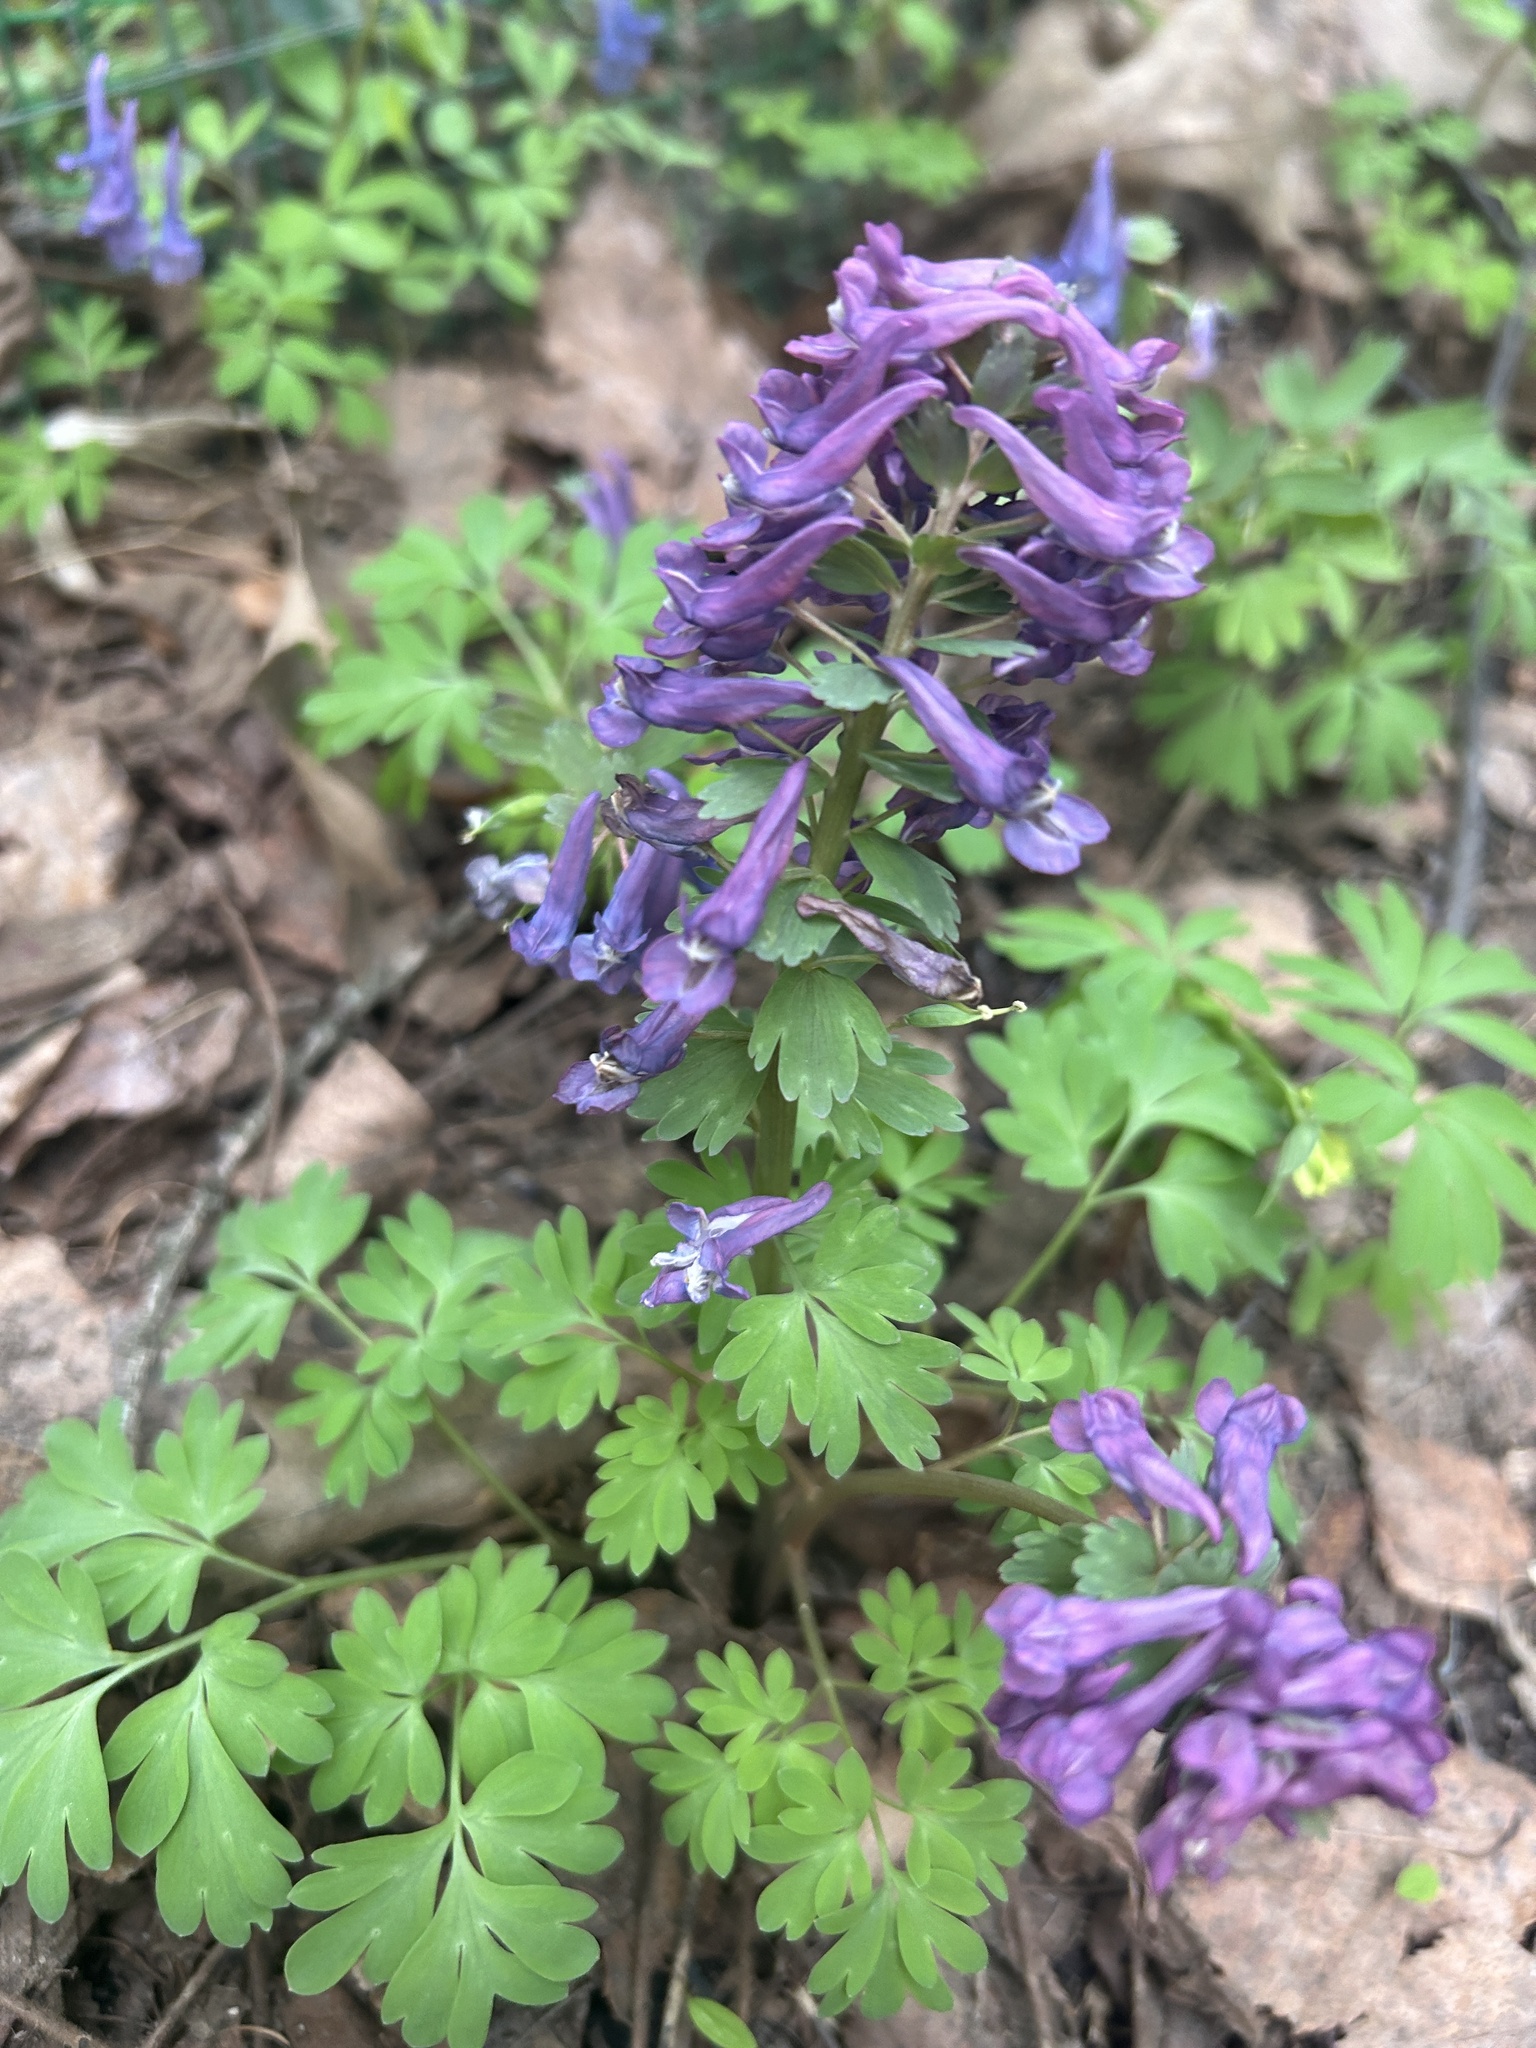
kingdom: Plantae
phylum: Tracheophyta
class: Magnoliopsida
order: Ranunculales
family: Papaveraceae
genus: Corydalis
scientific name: Corydalis solida
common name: Bird-in-a-bush
